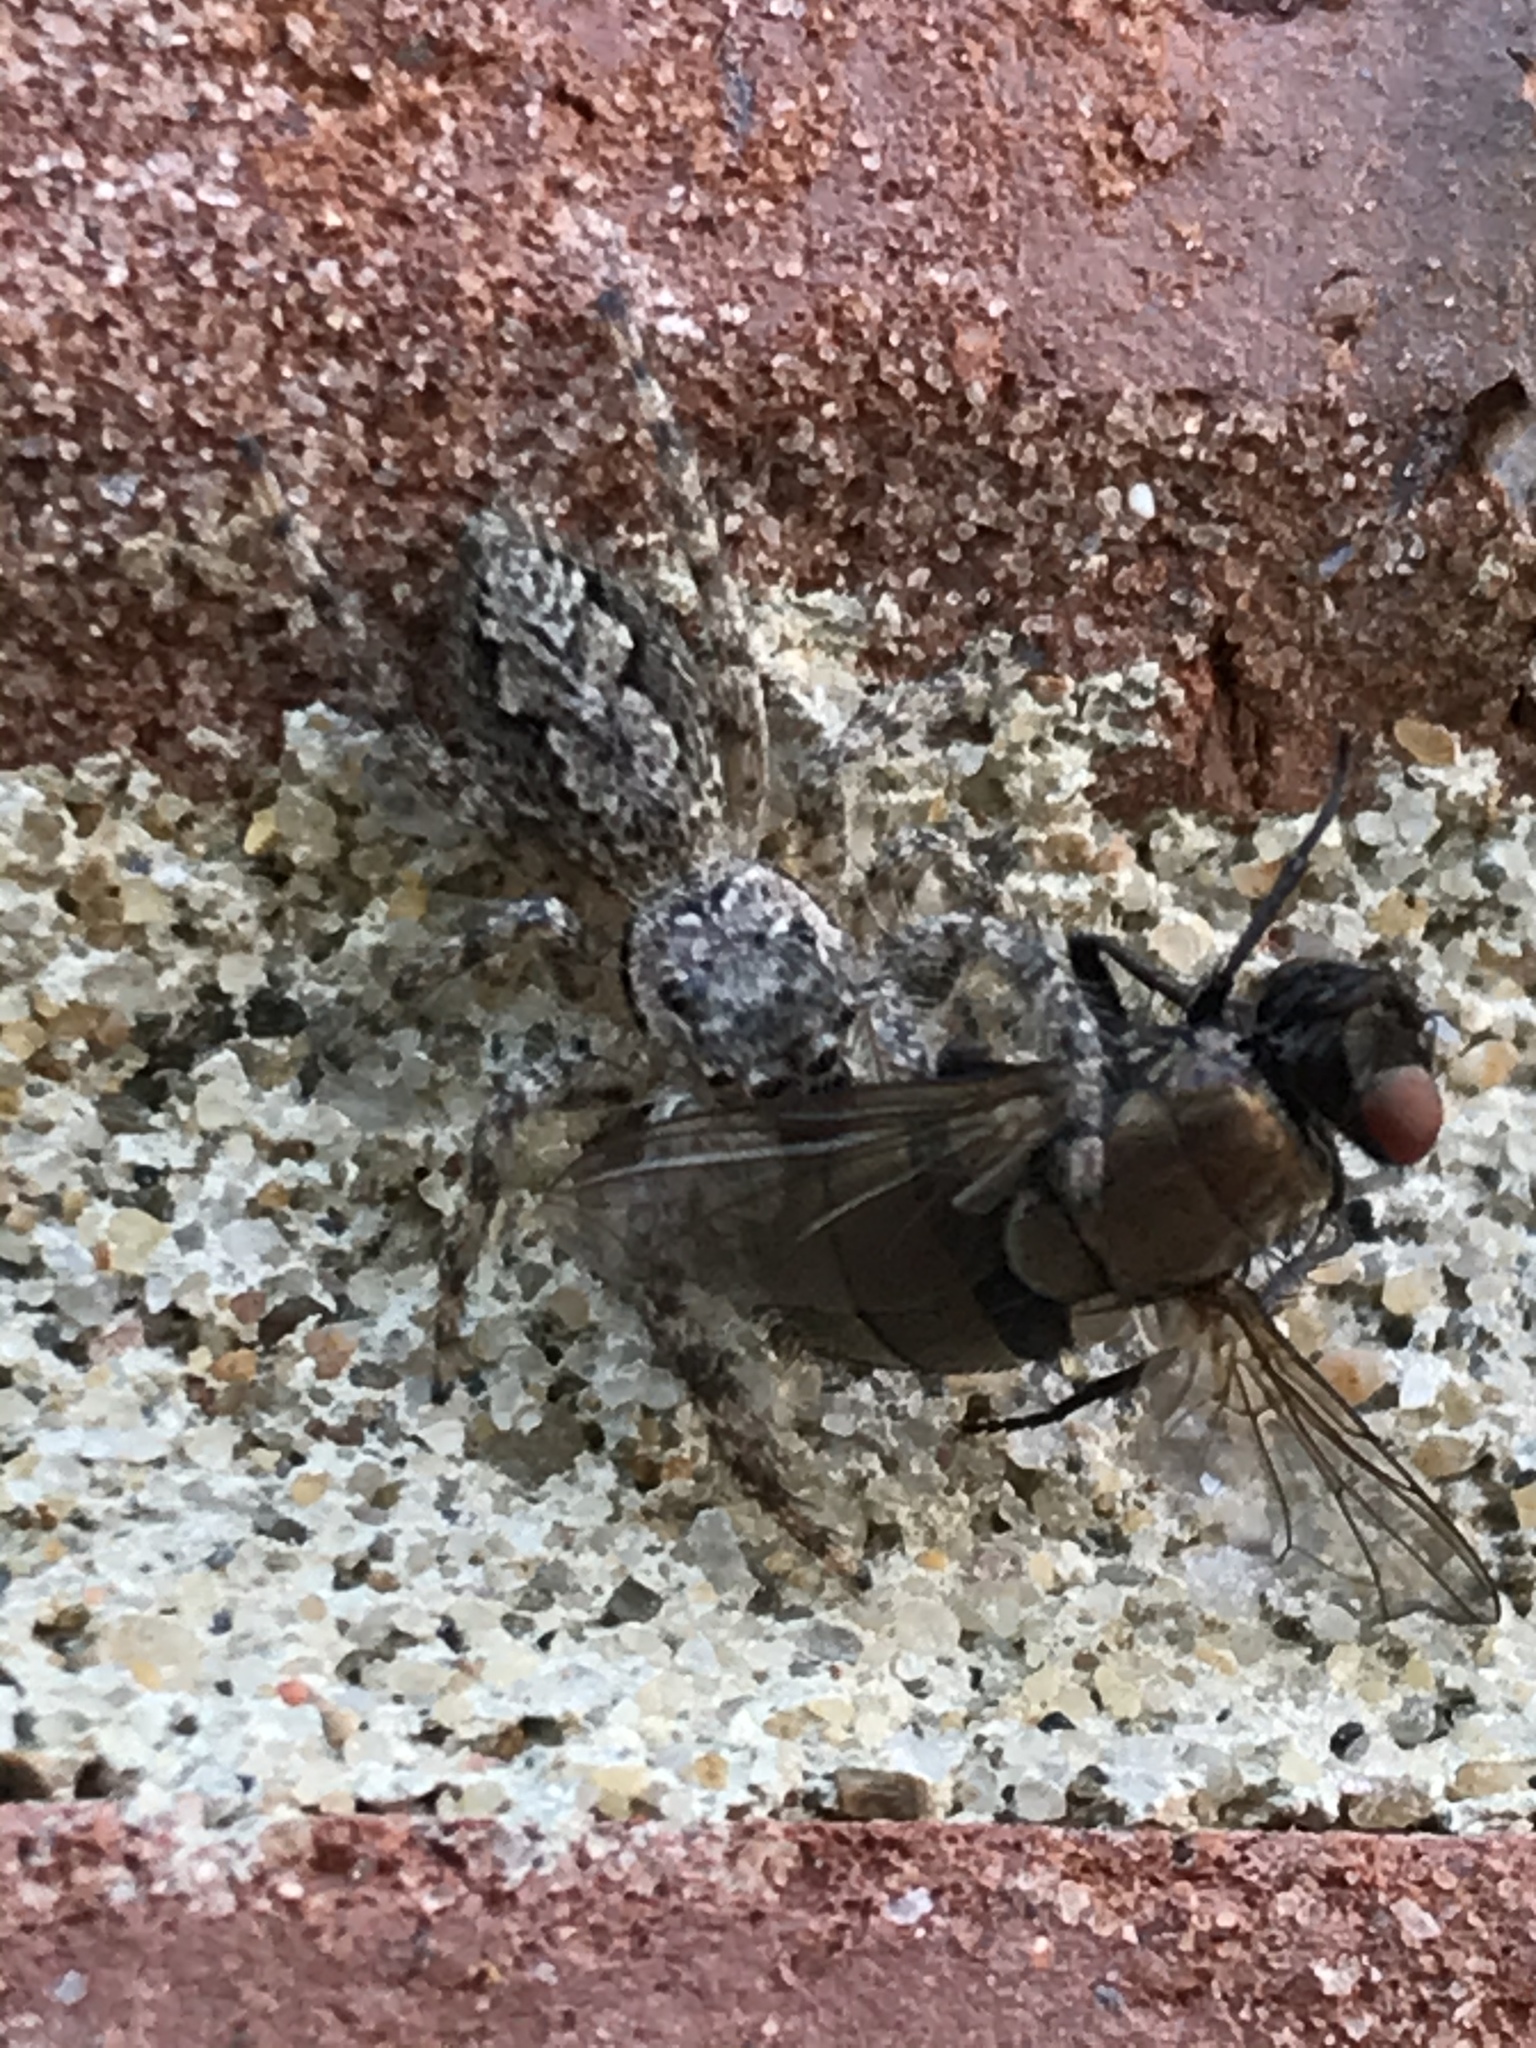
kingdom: Animalia
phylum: Arthropoda
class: Arachnida
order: Araneae
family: Salticidae
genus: Platycryptus
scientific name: Platycryptus undatus
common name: Tan jumping spider
